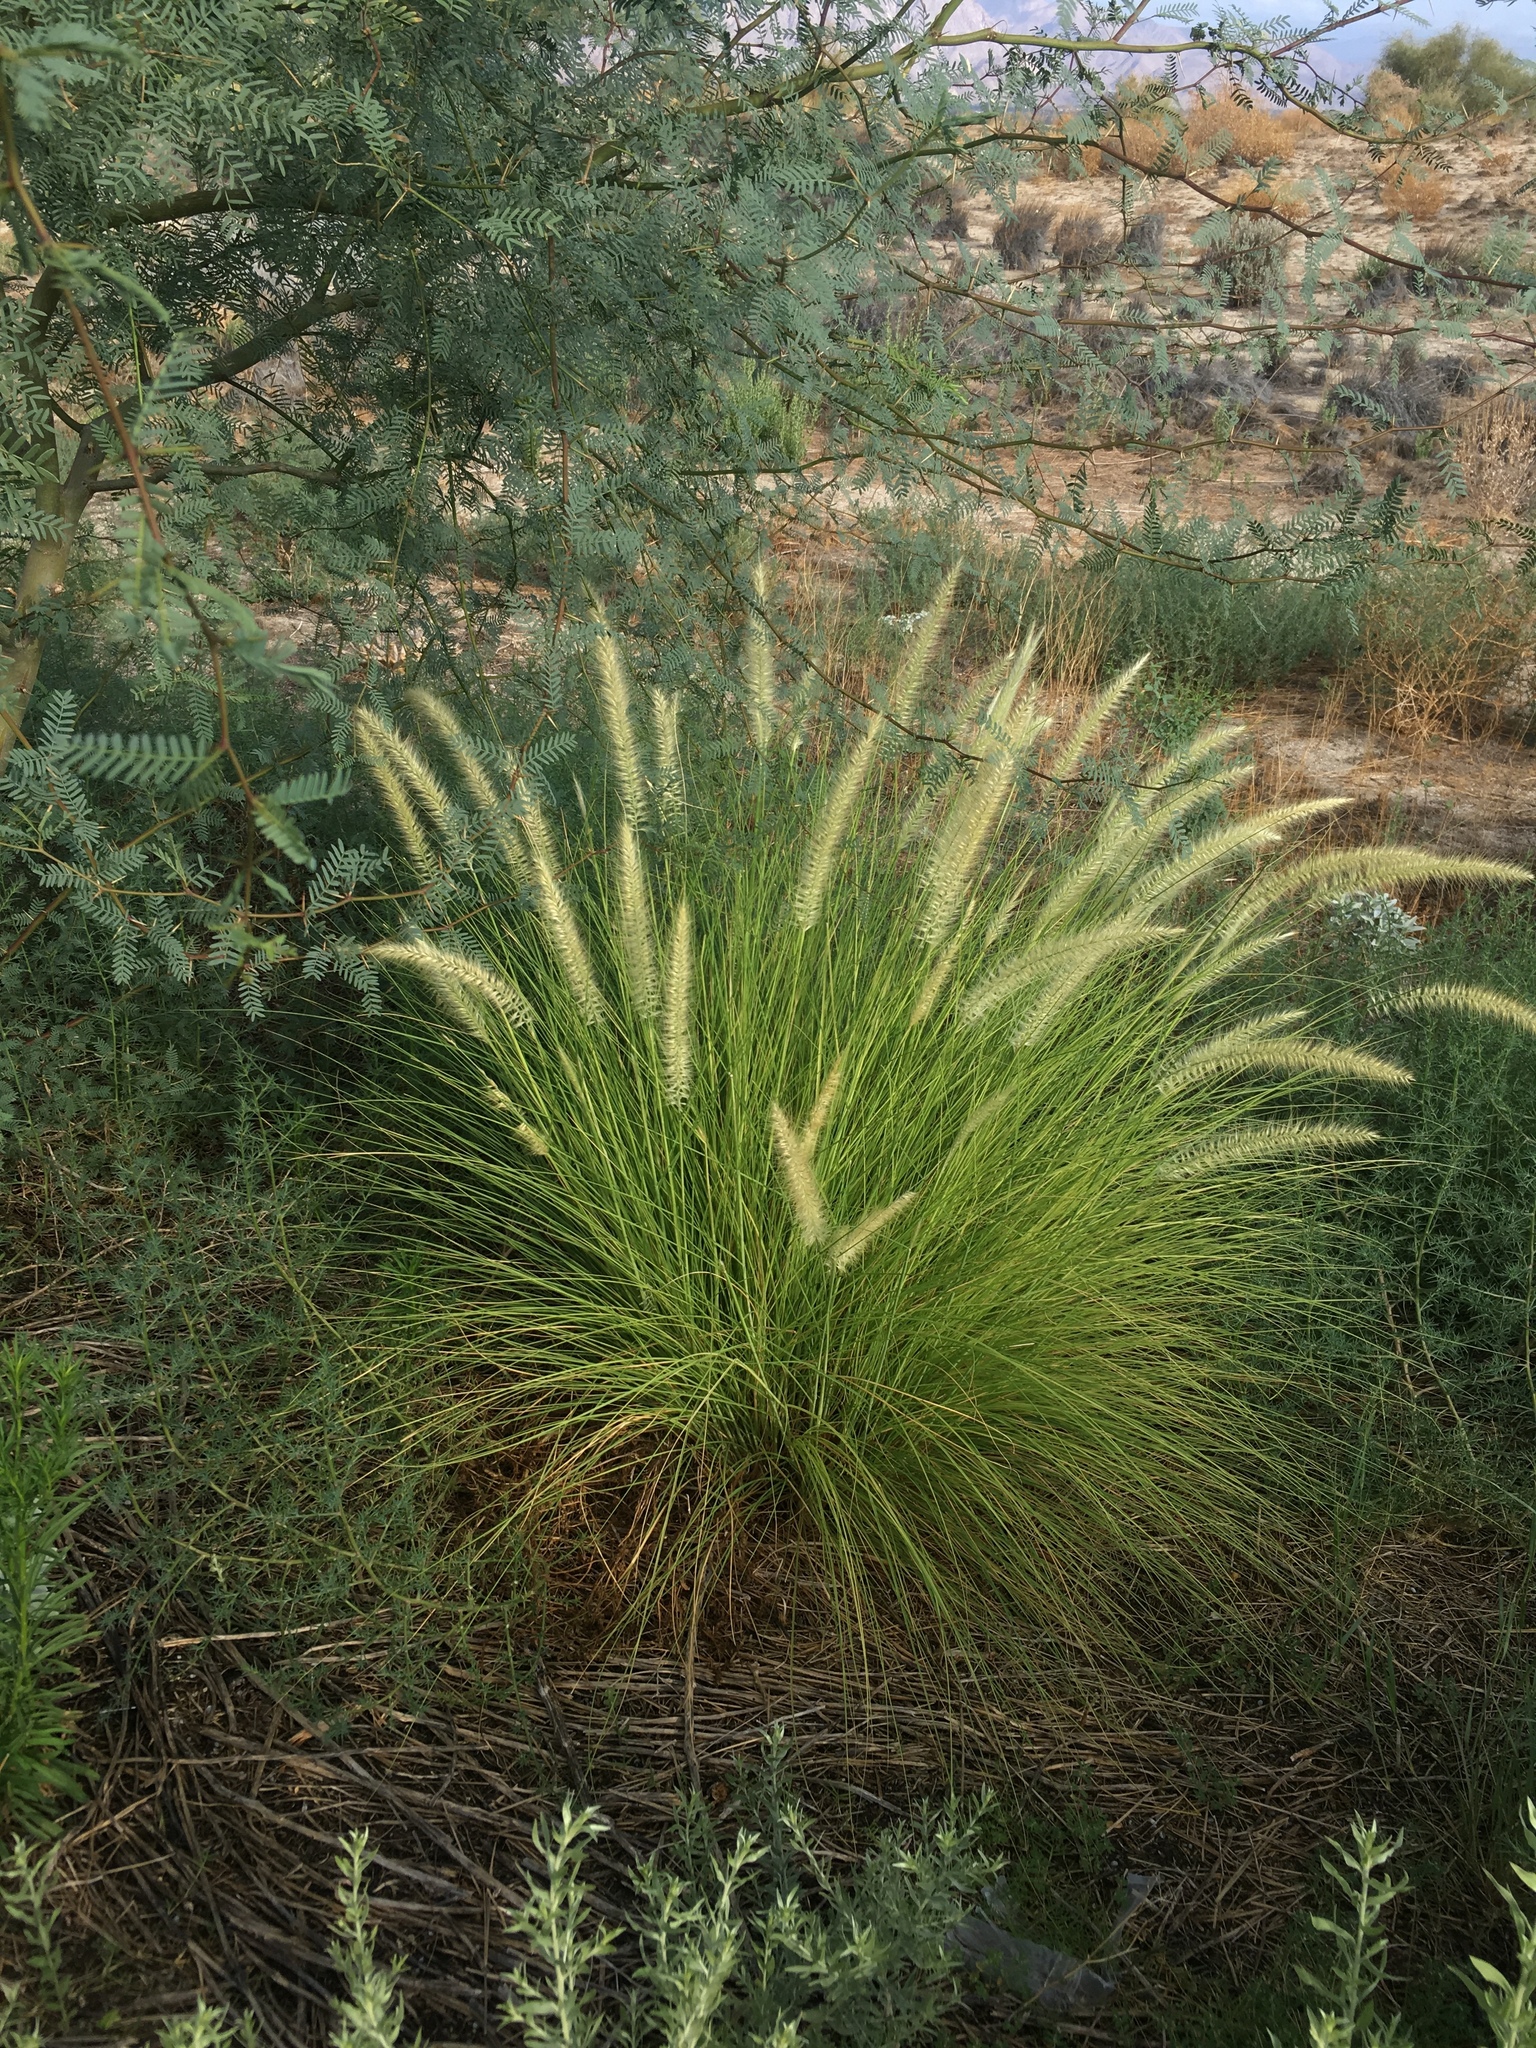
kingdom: Plantae
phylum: Tracheophyta
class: Liliopsida
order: Poales
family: Poaceae
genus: Cenchrus
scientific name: Cenchrus setaceus
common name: Crimson fountaingrass
